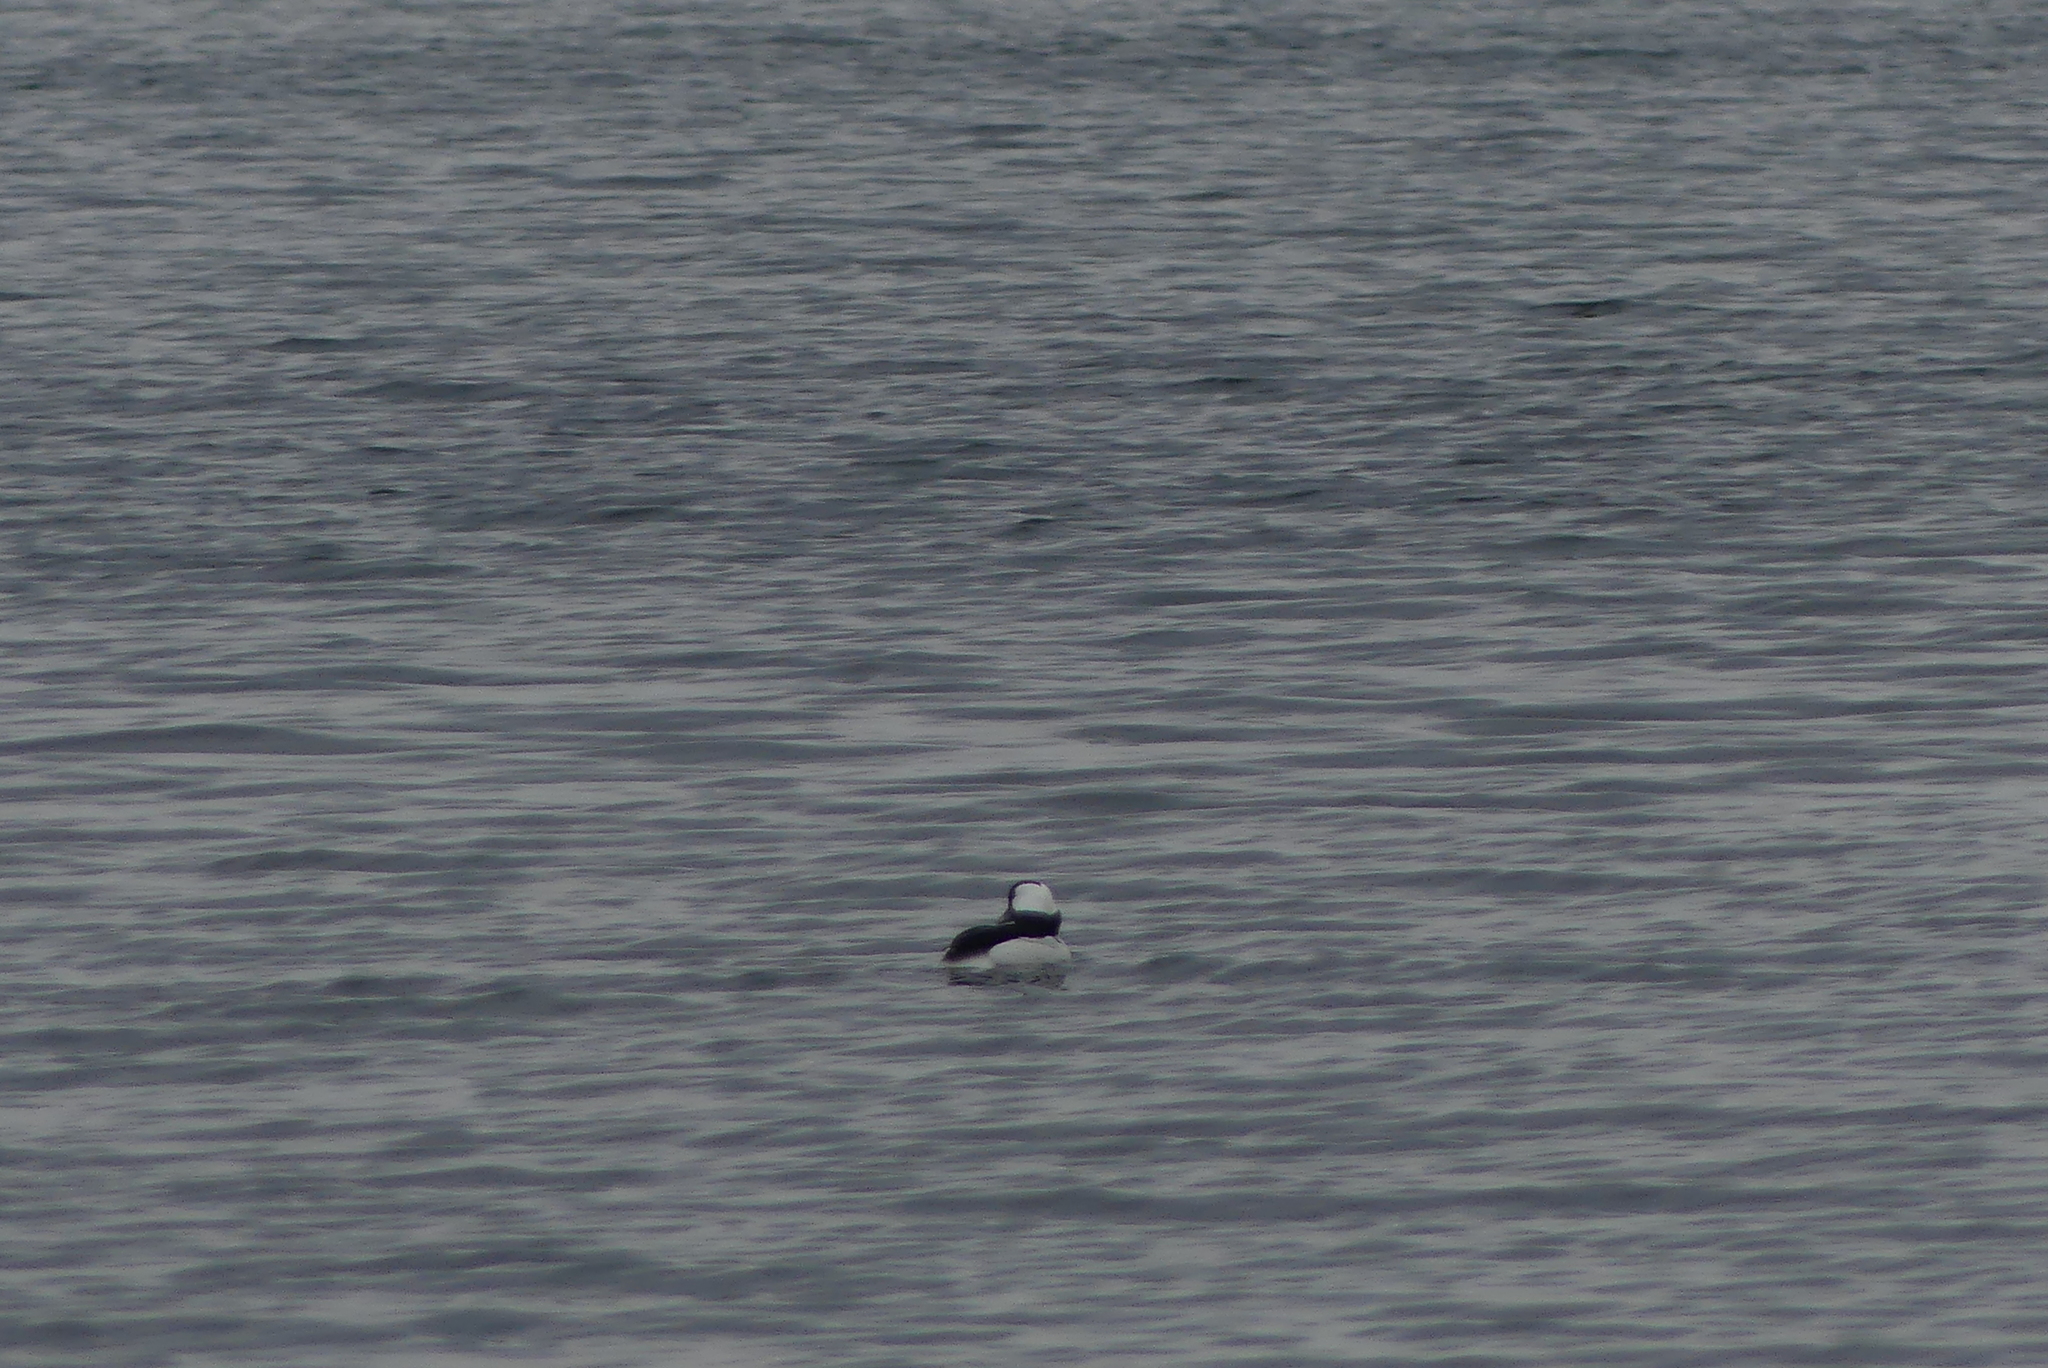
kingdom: Animalia
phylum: Chordata
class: Aves
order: Anseriformes
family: Anatidae
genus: Bucephala
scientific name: Bucephala albeola
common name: Bufflehead
